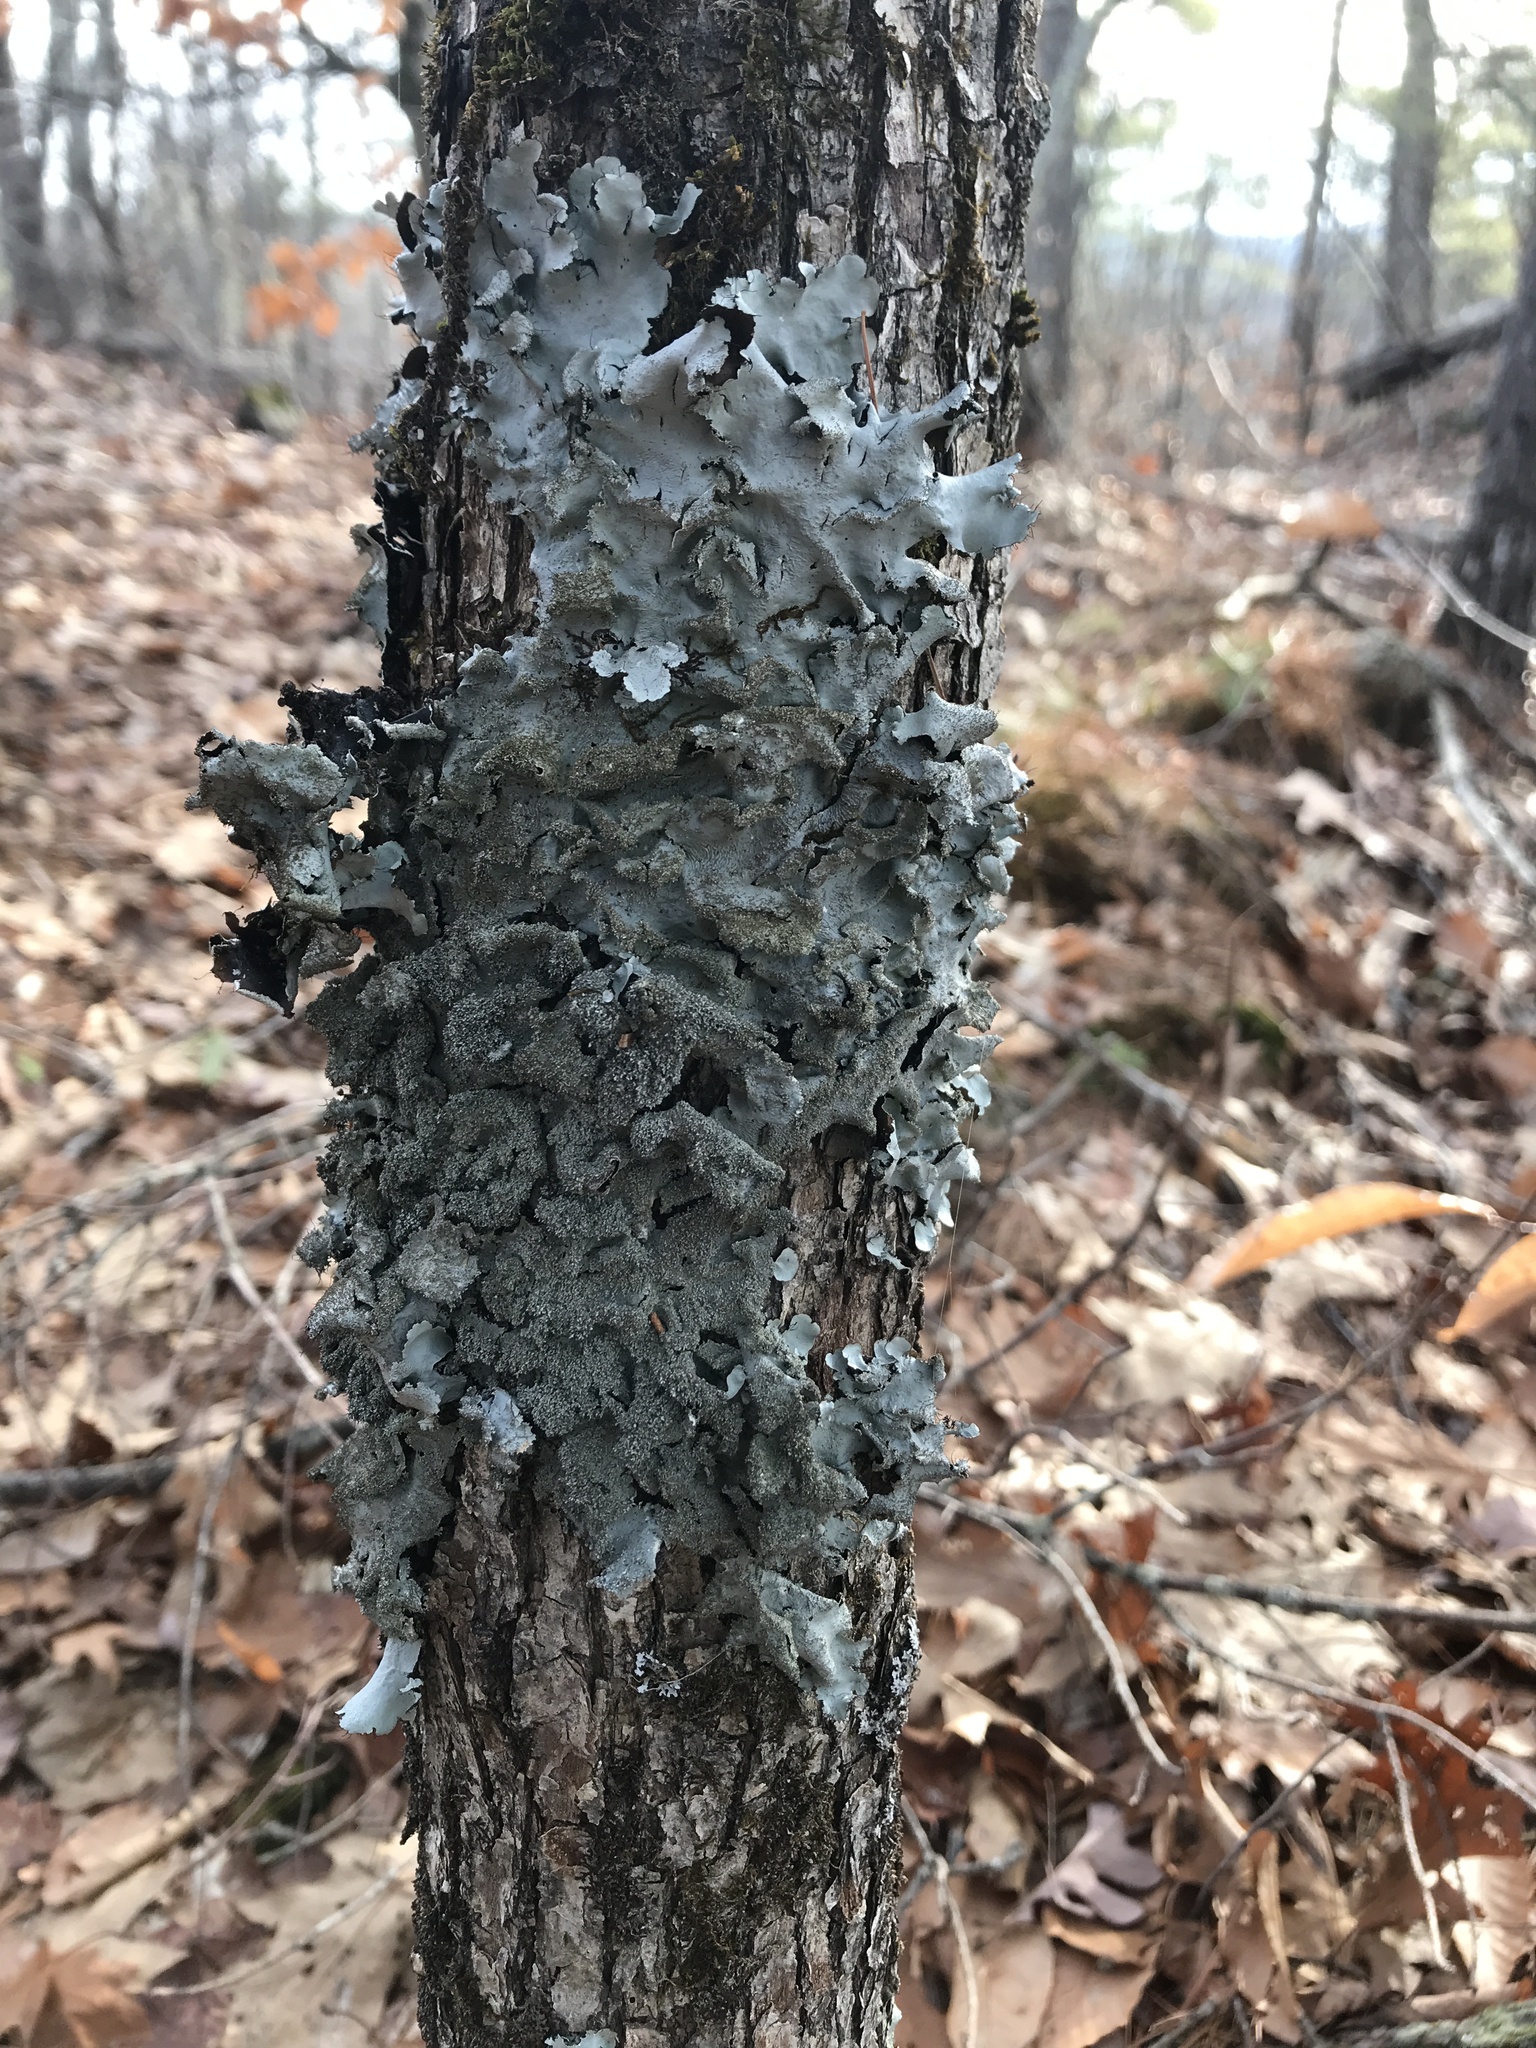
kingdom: Fungi
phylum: Ascomycota
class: Lecanoromycetes
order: Lecanorales
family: Parmeliaceae
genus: Parmotrema
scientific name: Parmotrema crinitum
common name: Salted ruffle lichen
